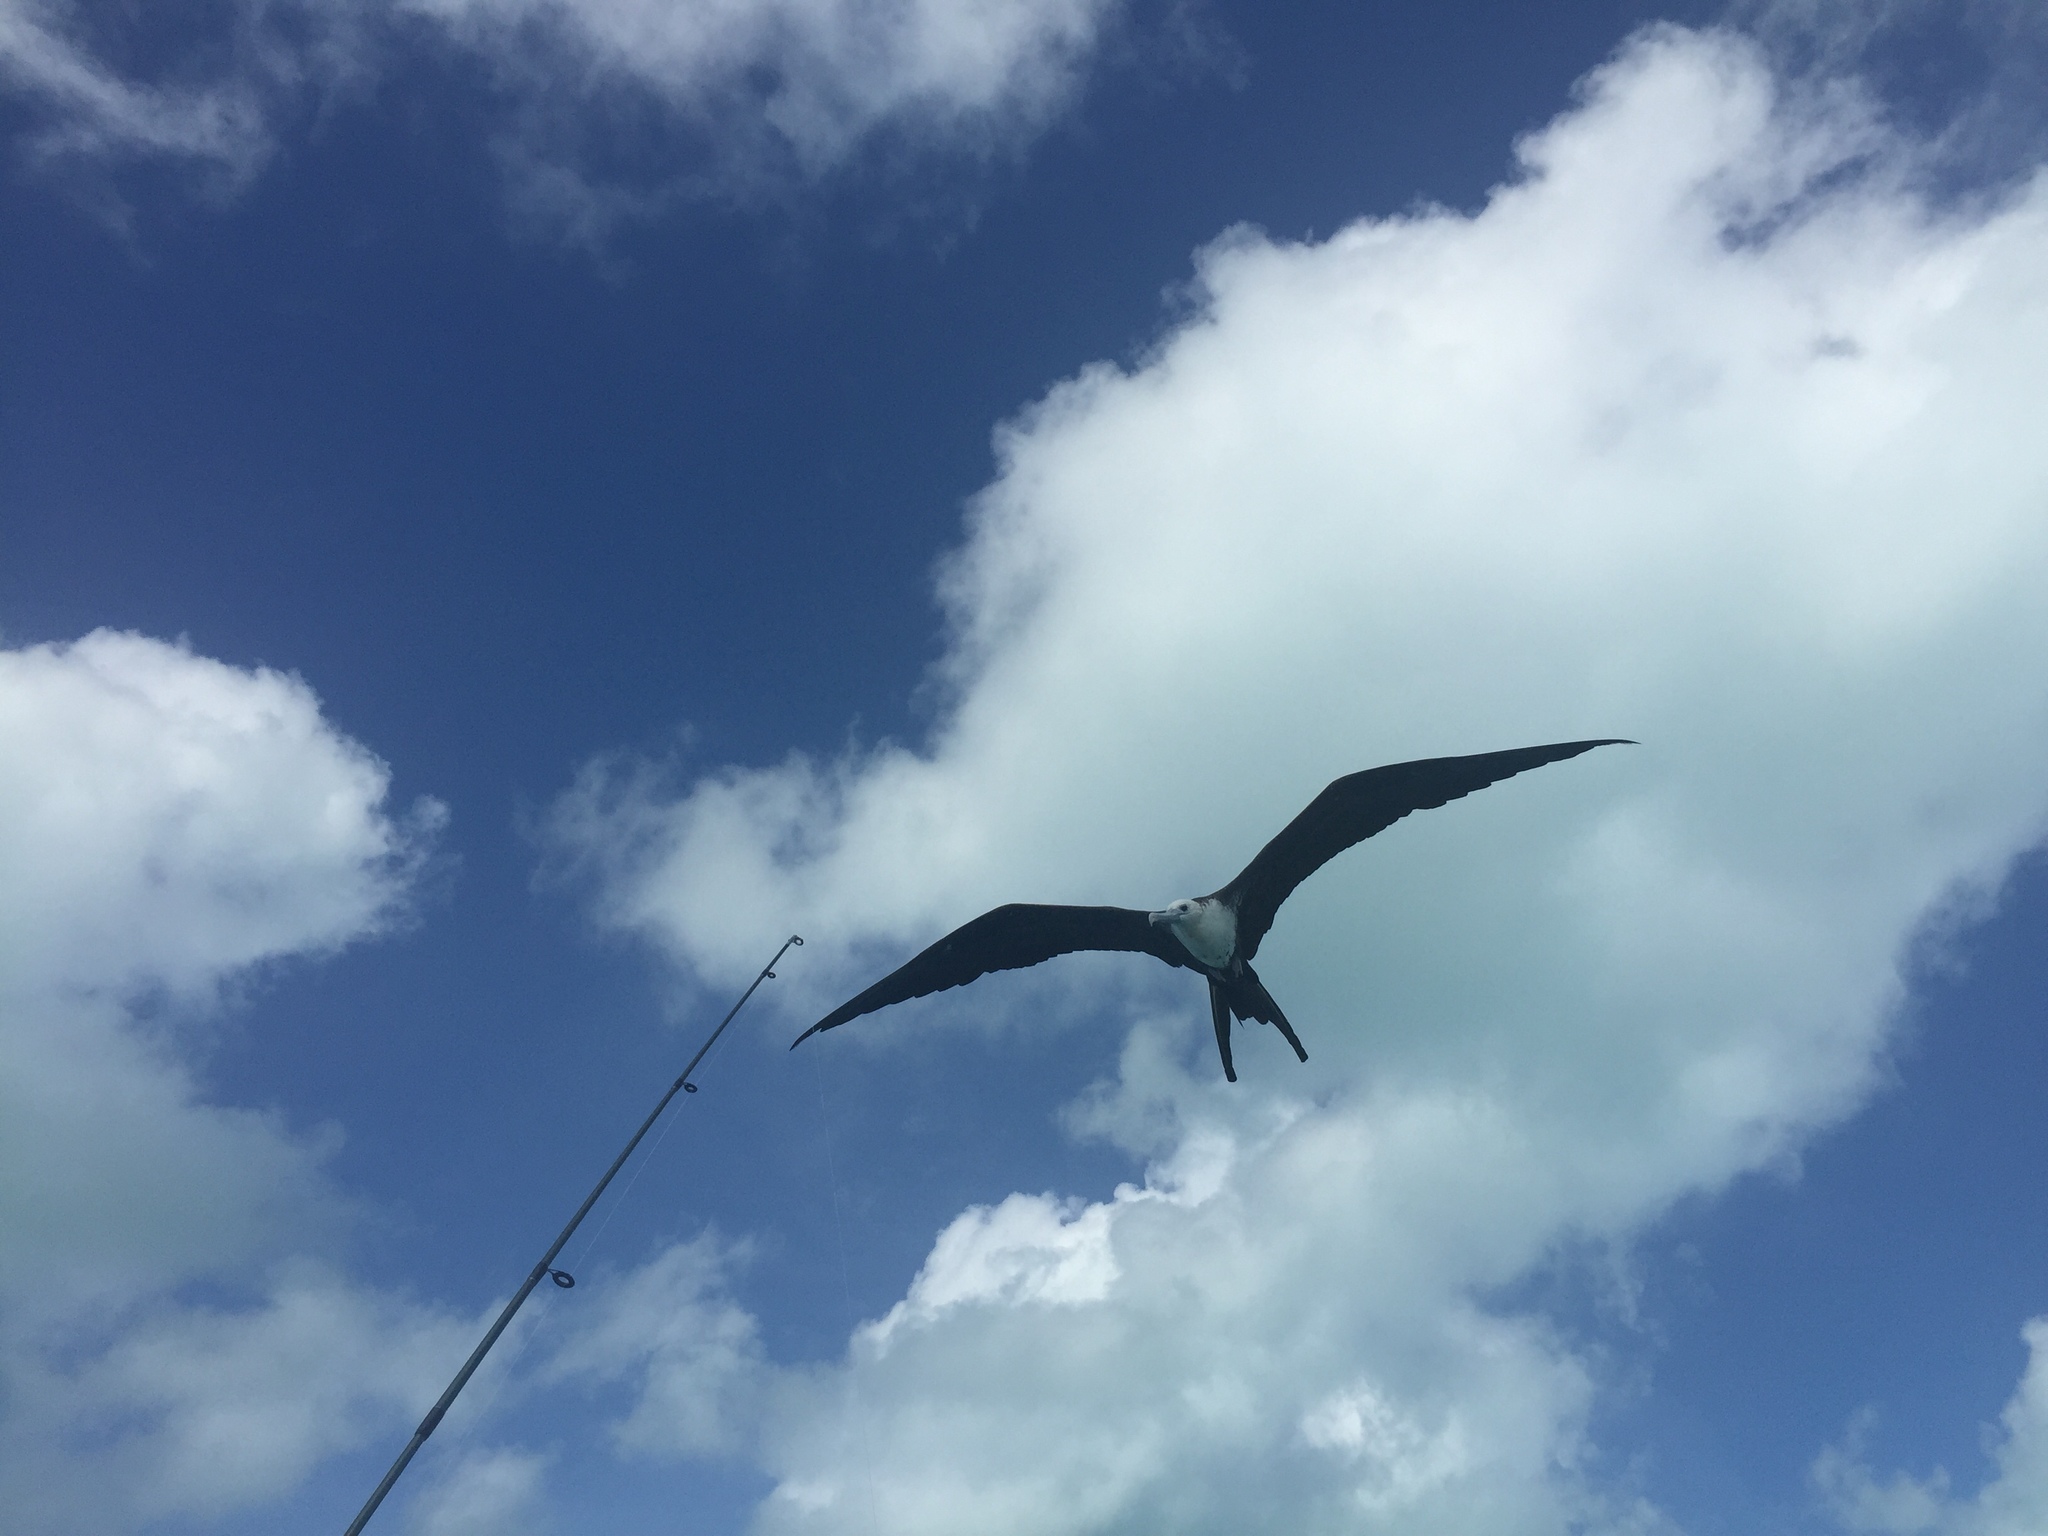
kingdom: Animalia
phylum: Chordata
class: Aves
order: Suliformes
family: Fregatidae
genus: Fregata
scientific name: Fregata magnificens
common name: Magnificent frigatebird
